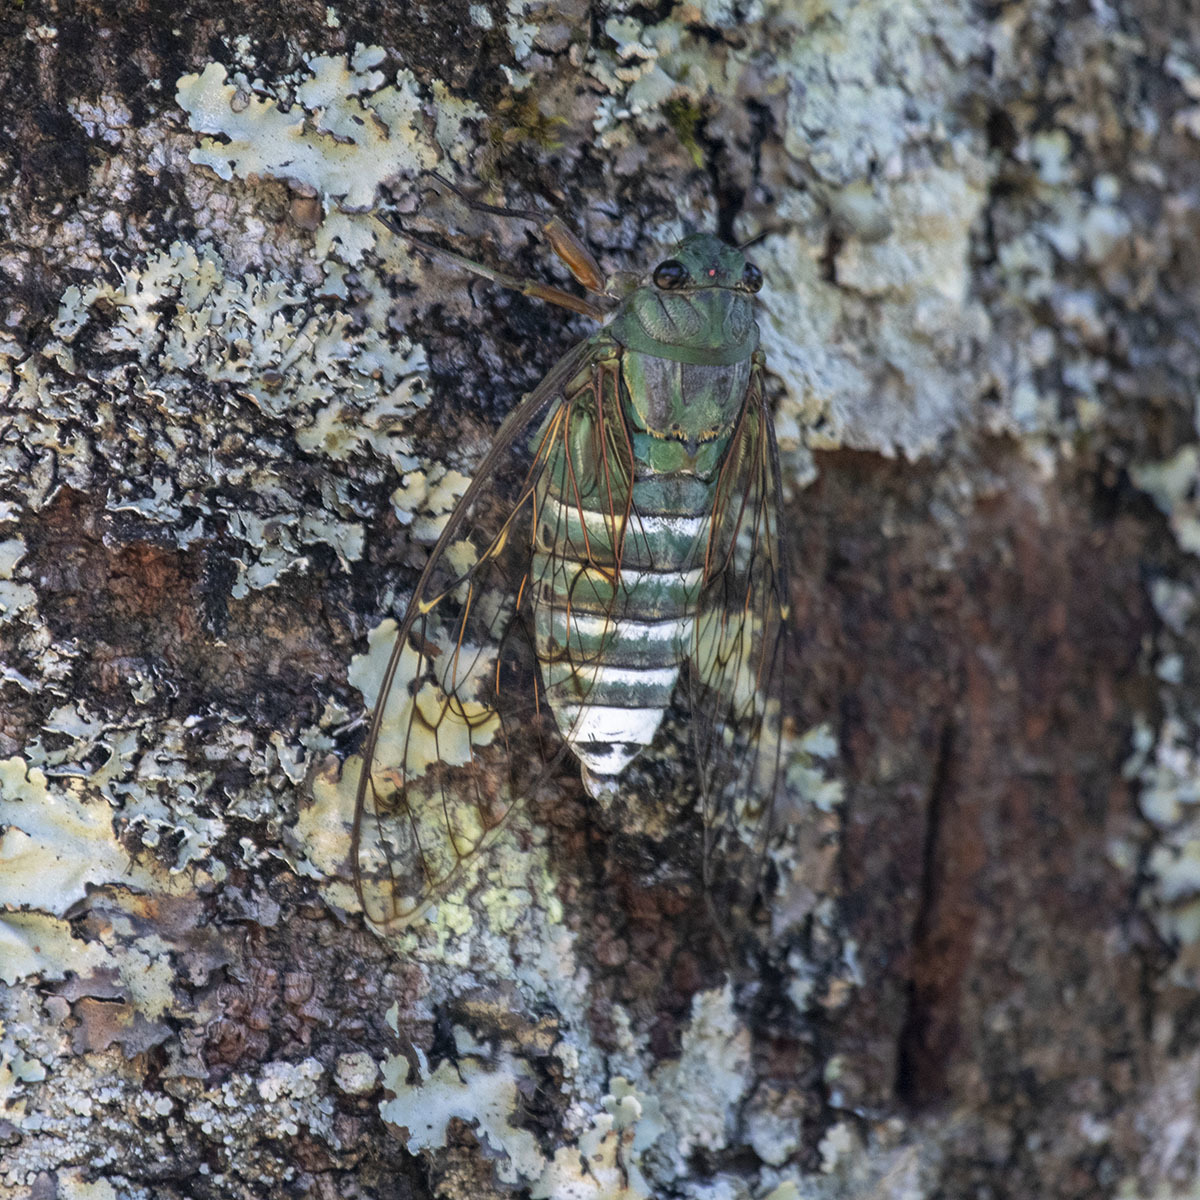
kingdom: Animalia
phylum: Arthropoda
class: Insecta
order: Hemiptera
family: Cicadidae
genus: Pomponia
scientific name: Pomponia cyanea
